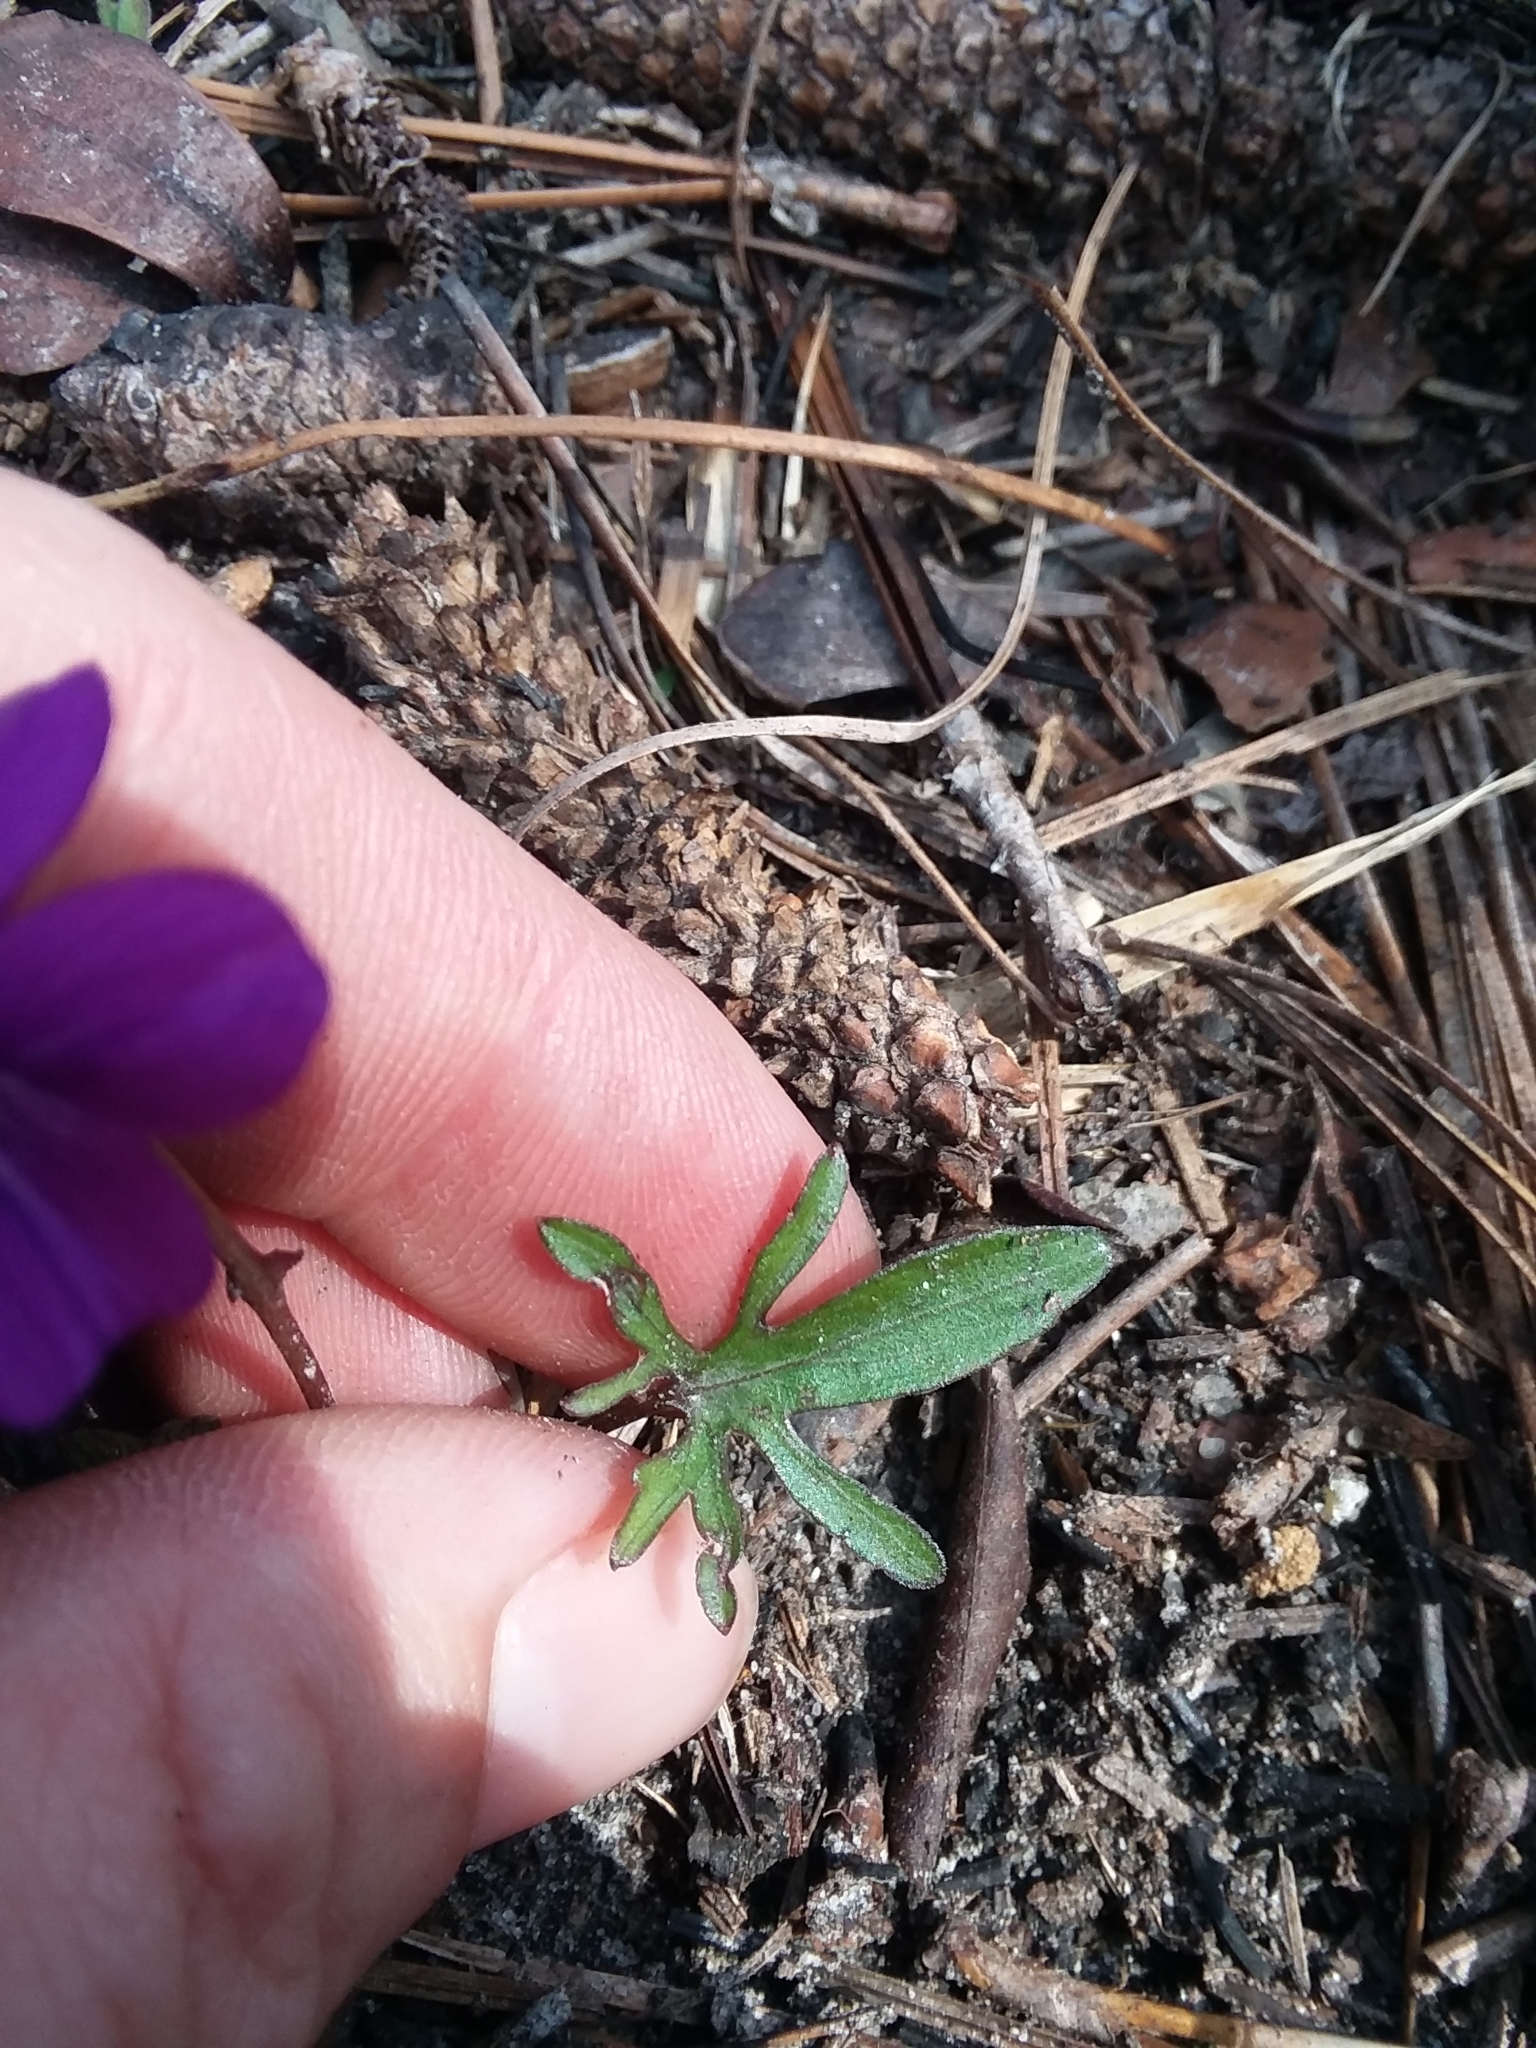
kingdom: Plantae
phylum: Tracheophyta
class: Magnoliopsida
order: Malpighiales
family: Violaceae
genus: Viola
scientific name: Viola septemloba
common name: Southern coast violet
